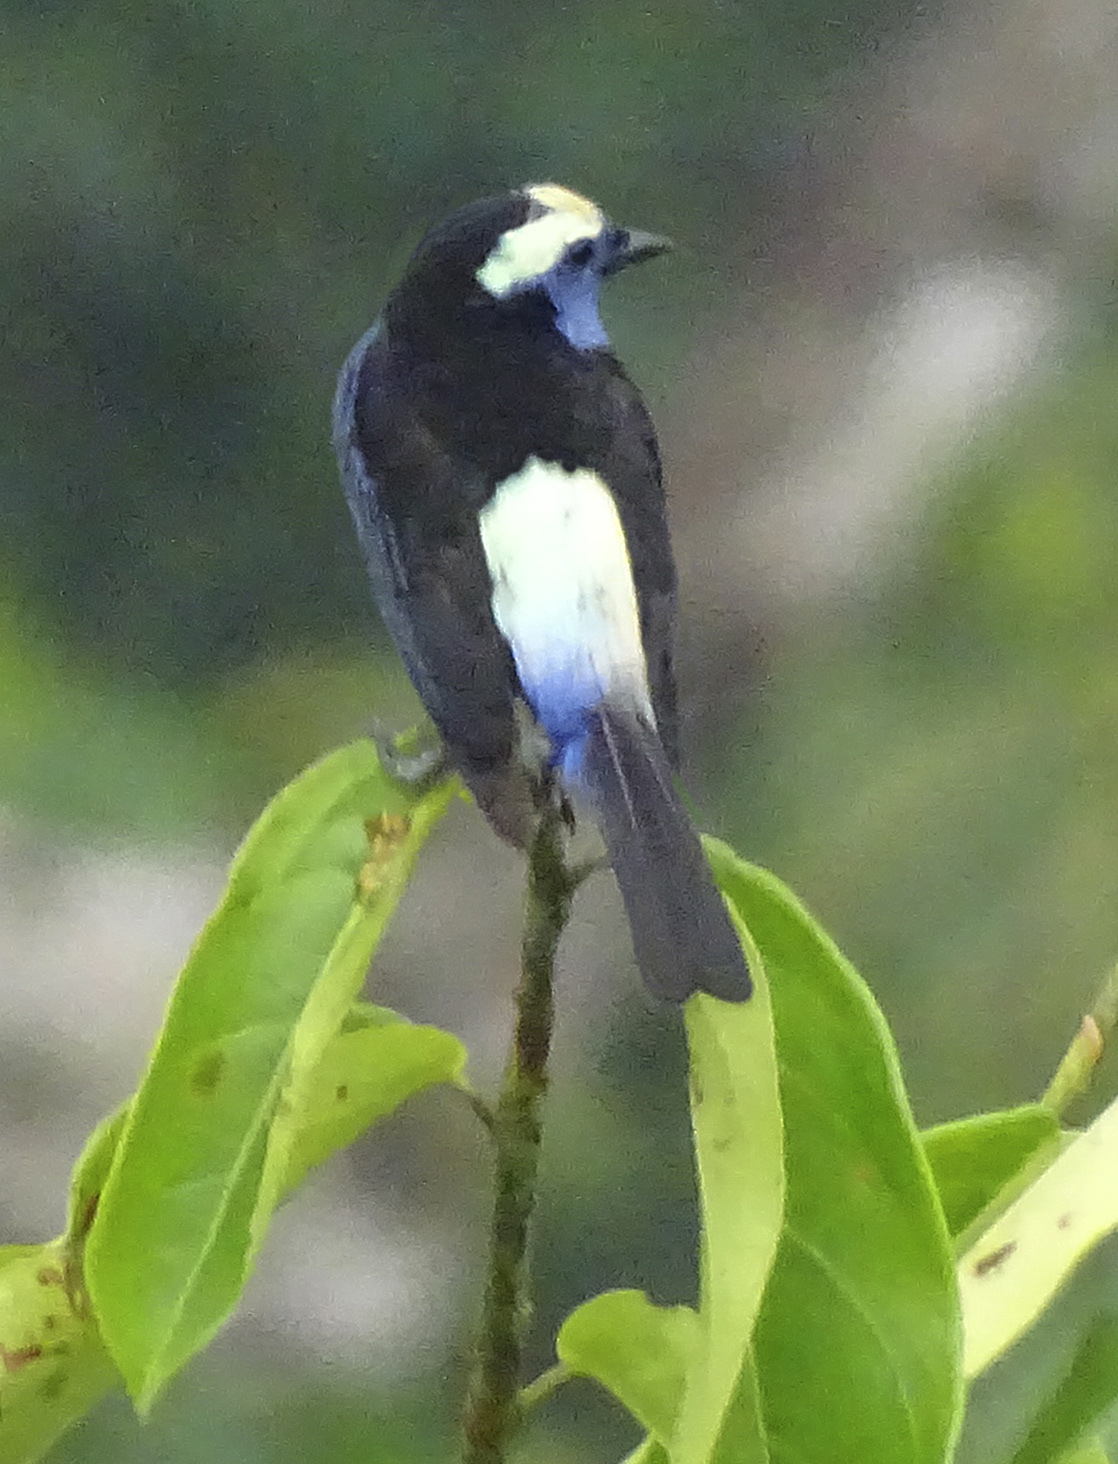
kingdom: Animalia
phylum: Chordata
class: Aves
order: Passeriformes
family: Thraupidae
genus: Tangara
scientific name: Tangara callophrys
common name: Opal-crowned tanager
